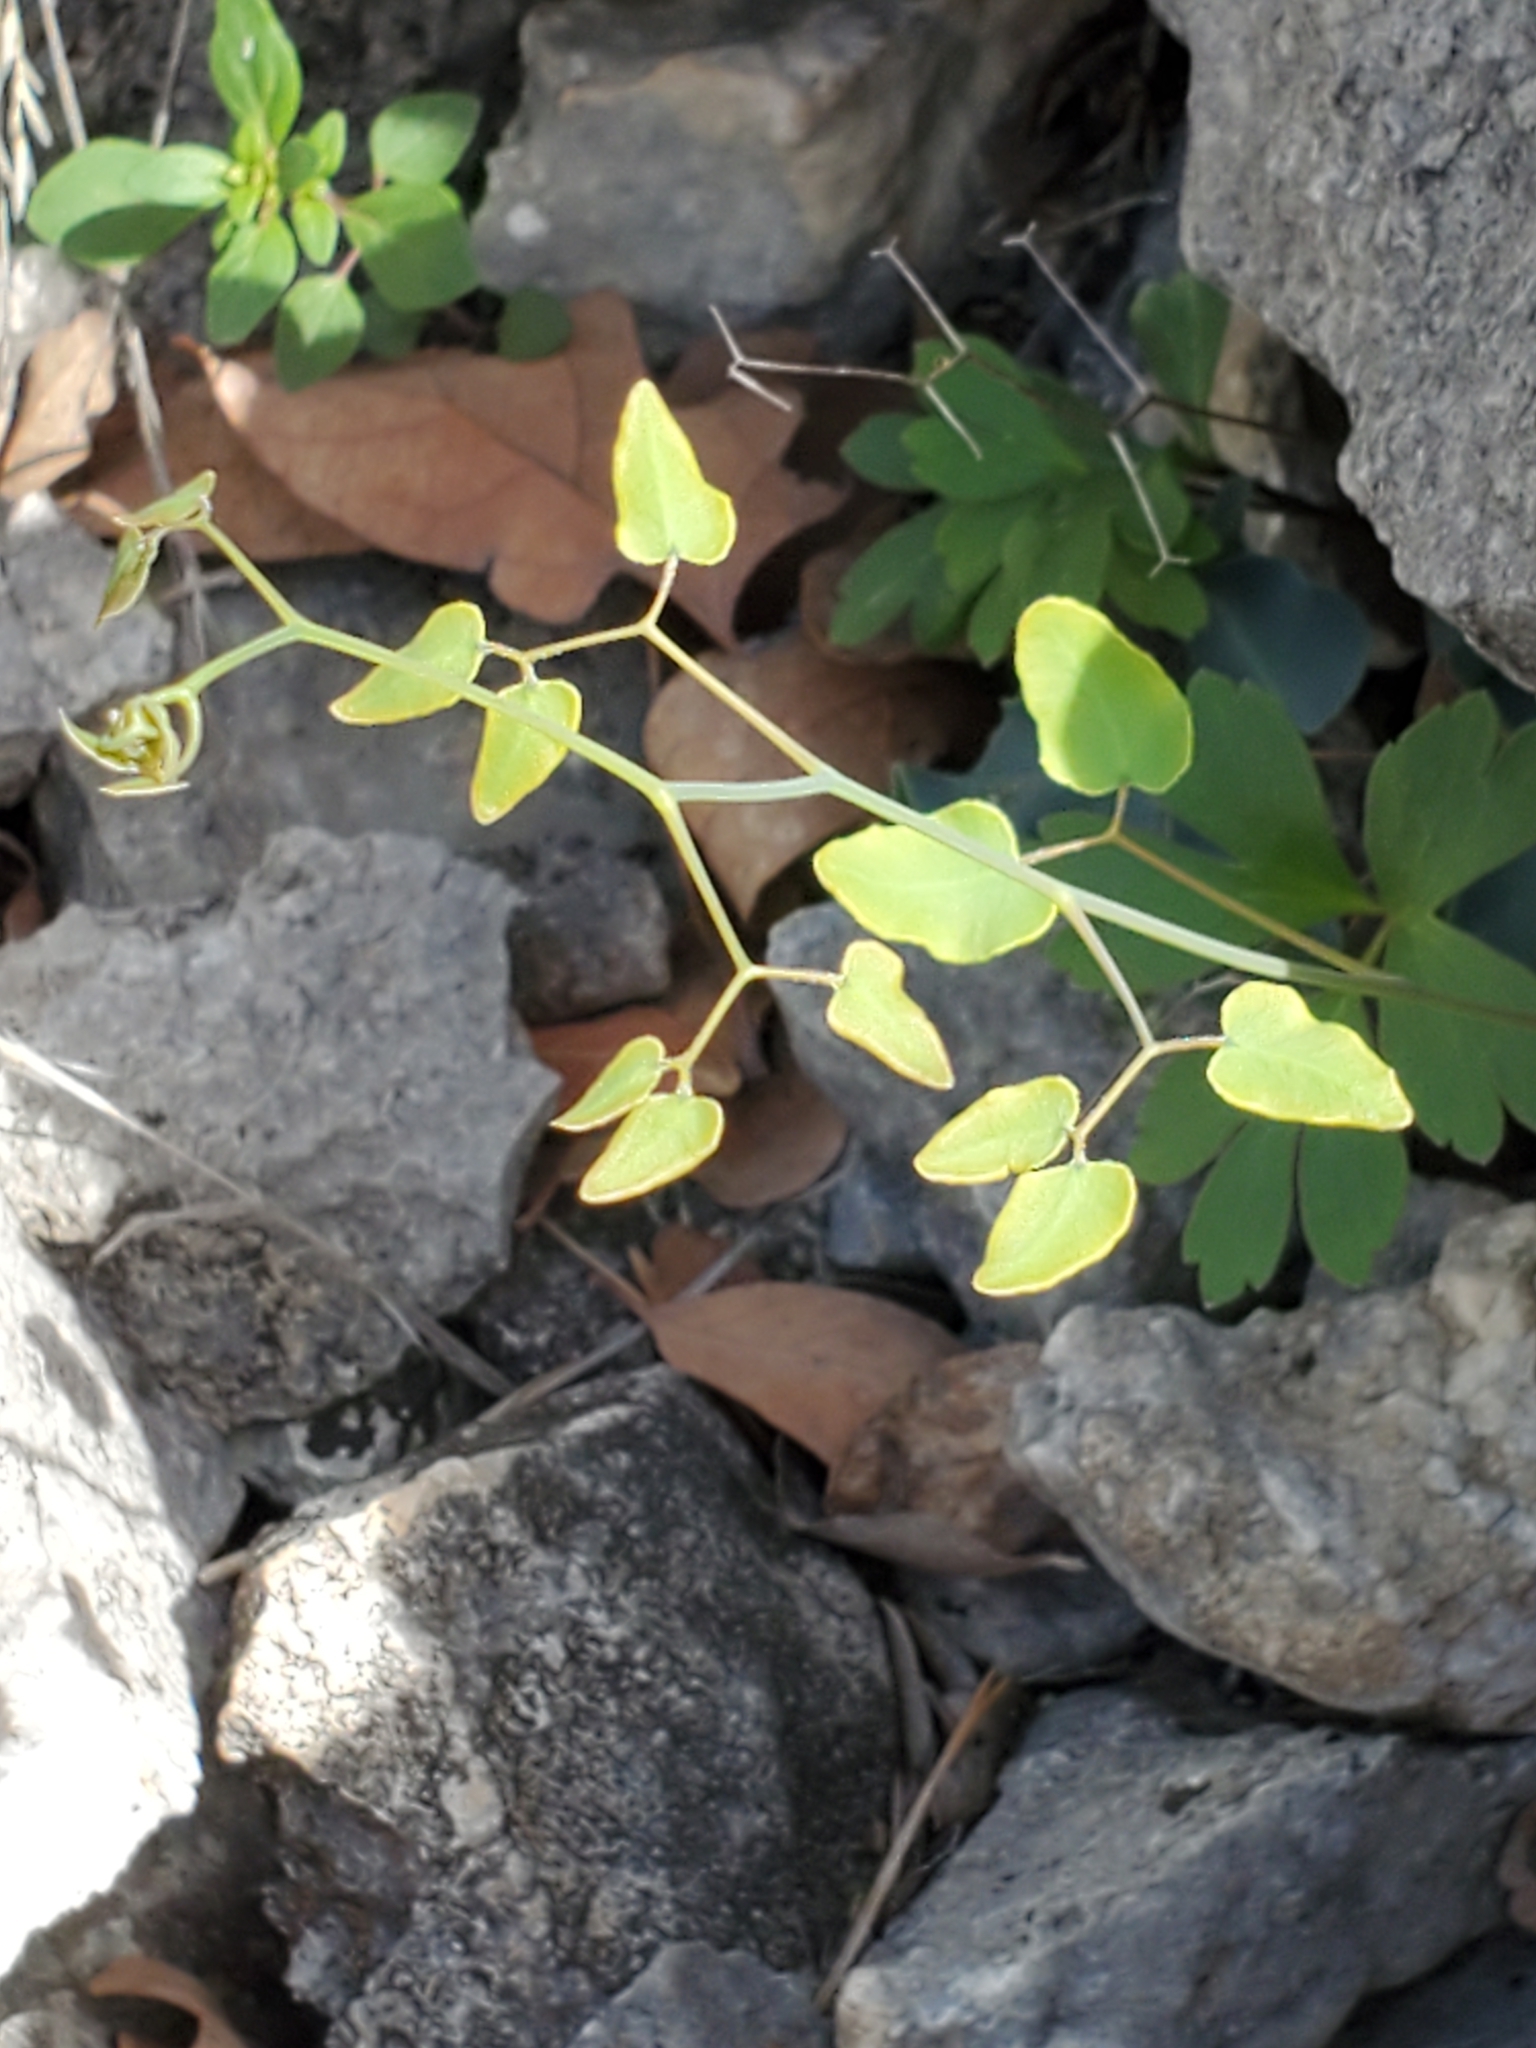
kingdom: Plantae
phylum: Tracheophyta
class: Polypodiopsida
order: Polypodiales
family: Pteridaceae
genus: Pellaea
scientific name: Pellaea ovata
